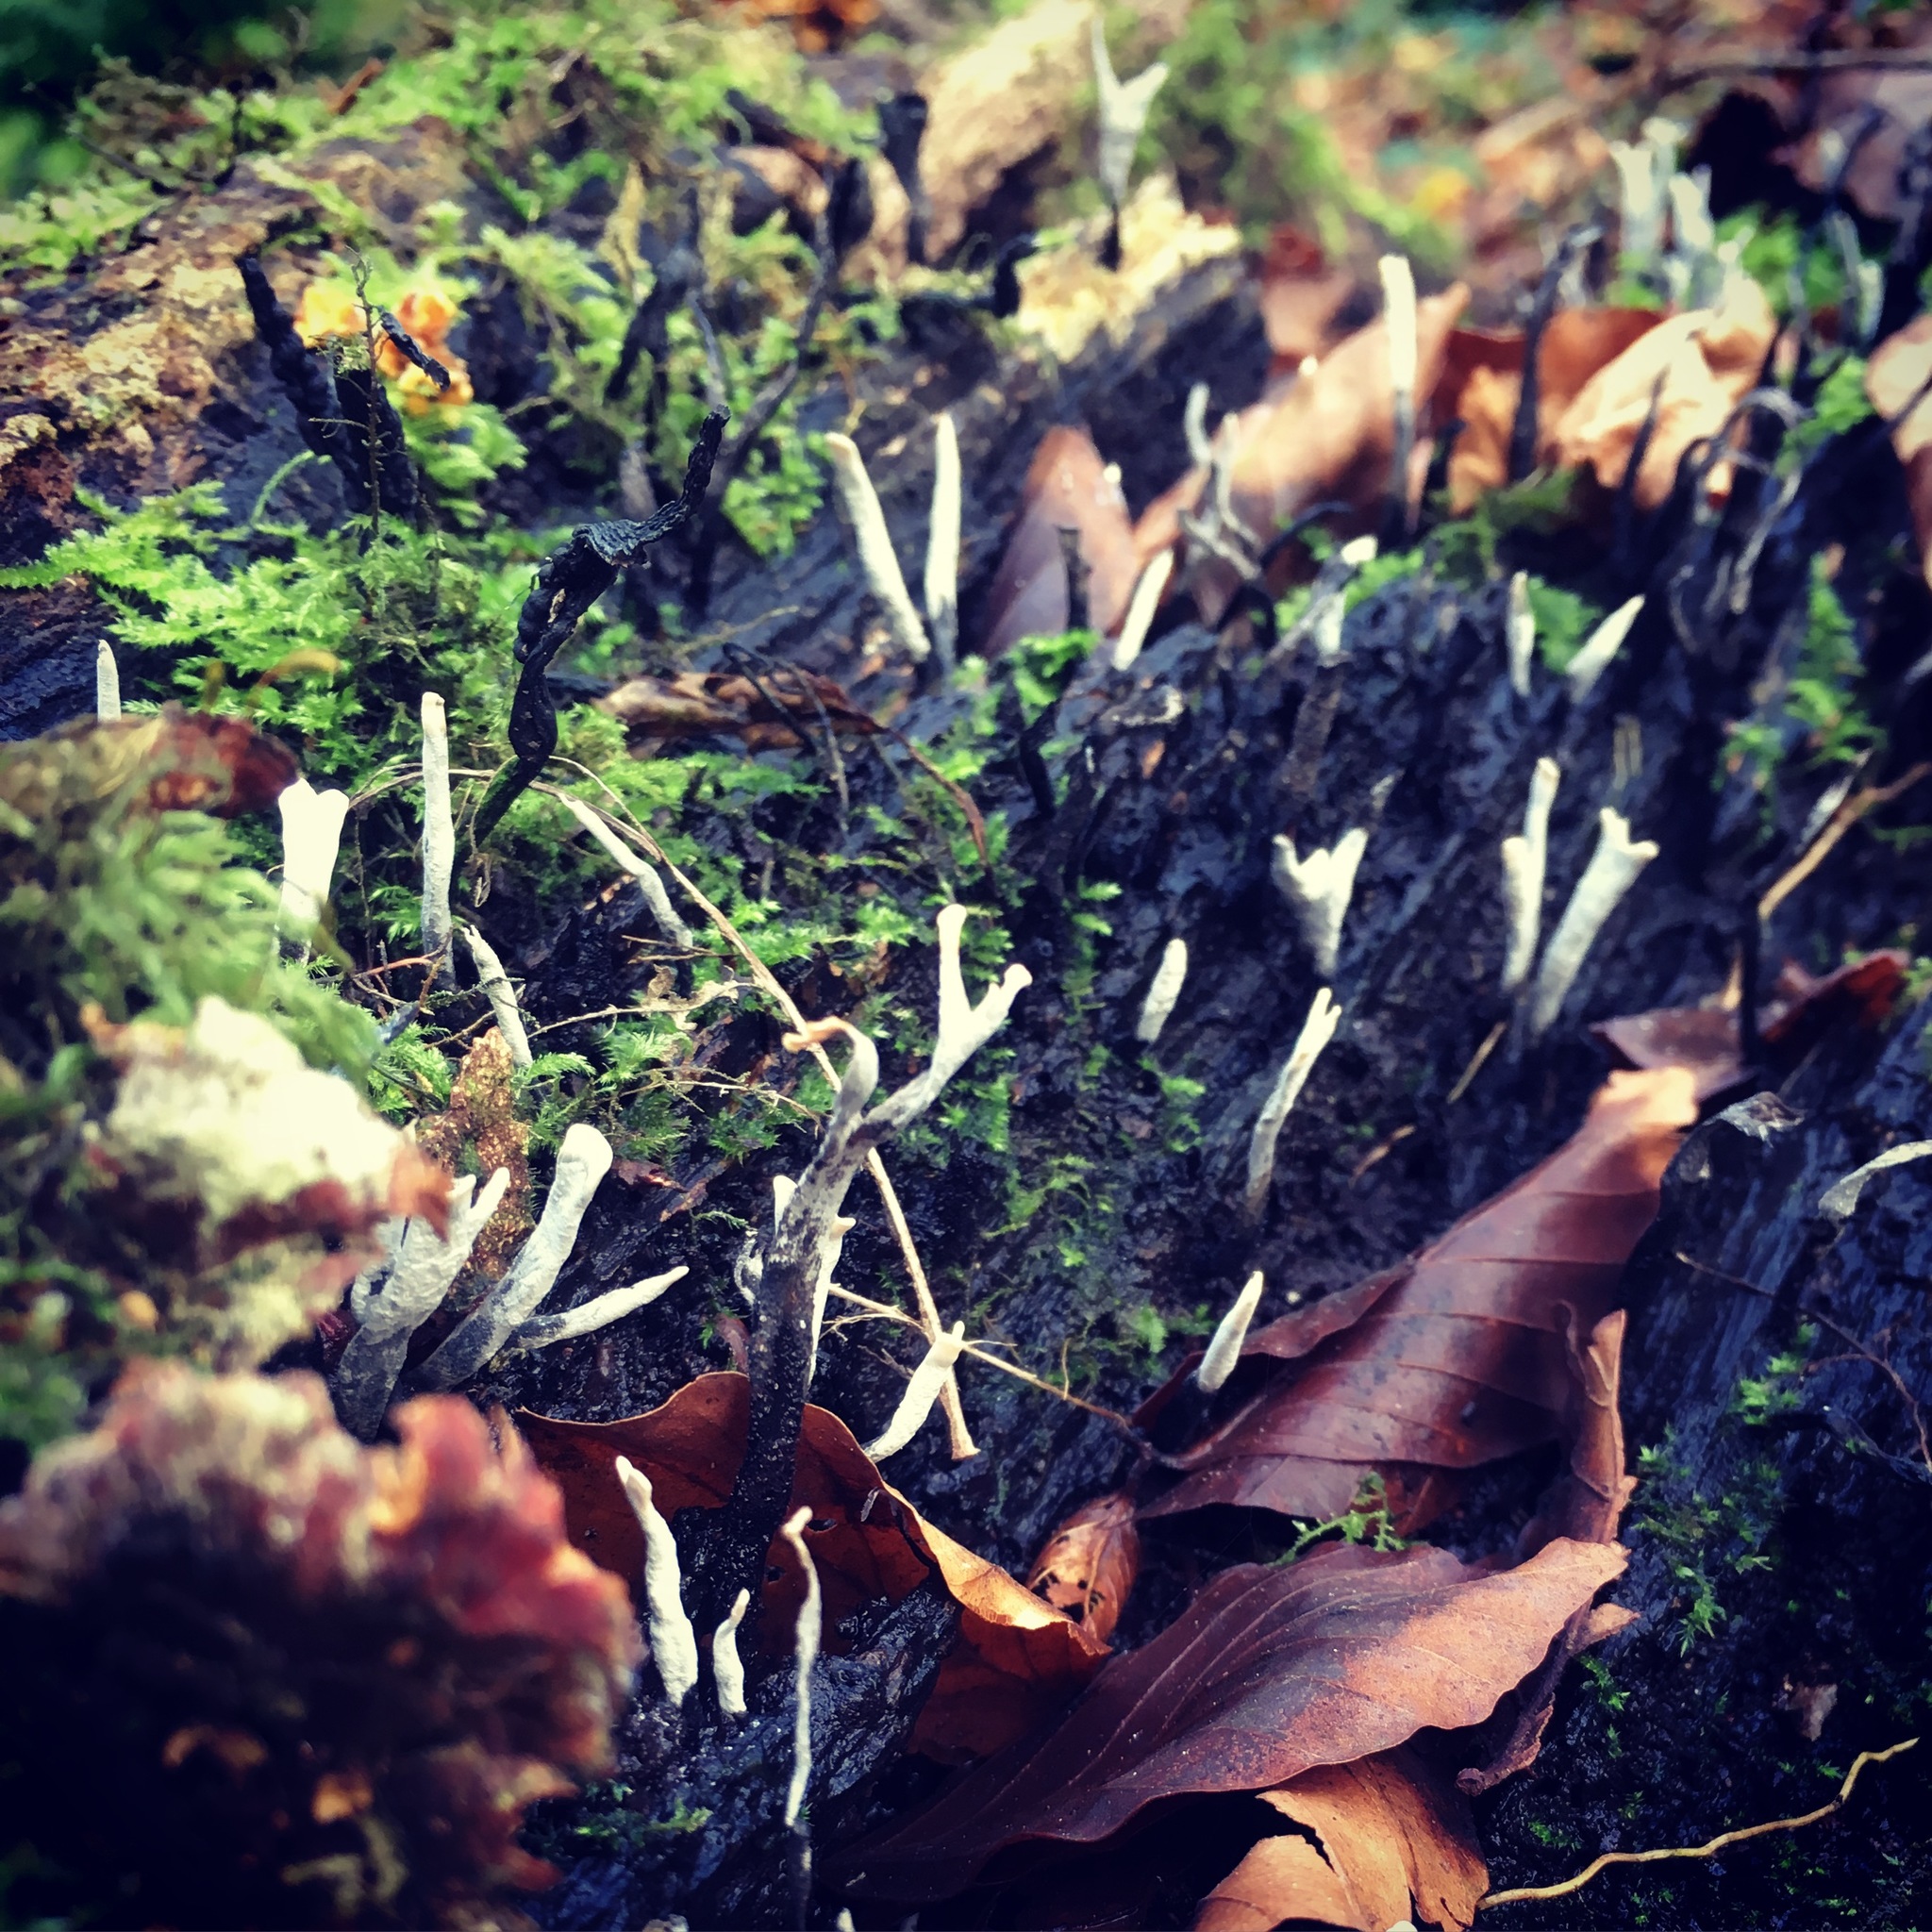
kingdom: Fungi
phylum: Ascomycota
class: Sordariomycetes
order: Xylariales
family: Xylariaceae
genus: Xylaria
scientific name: Xylaria hypoxylon
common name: Candle-snuff fungus
